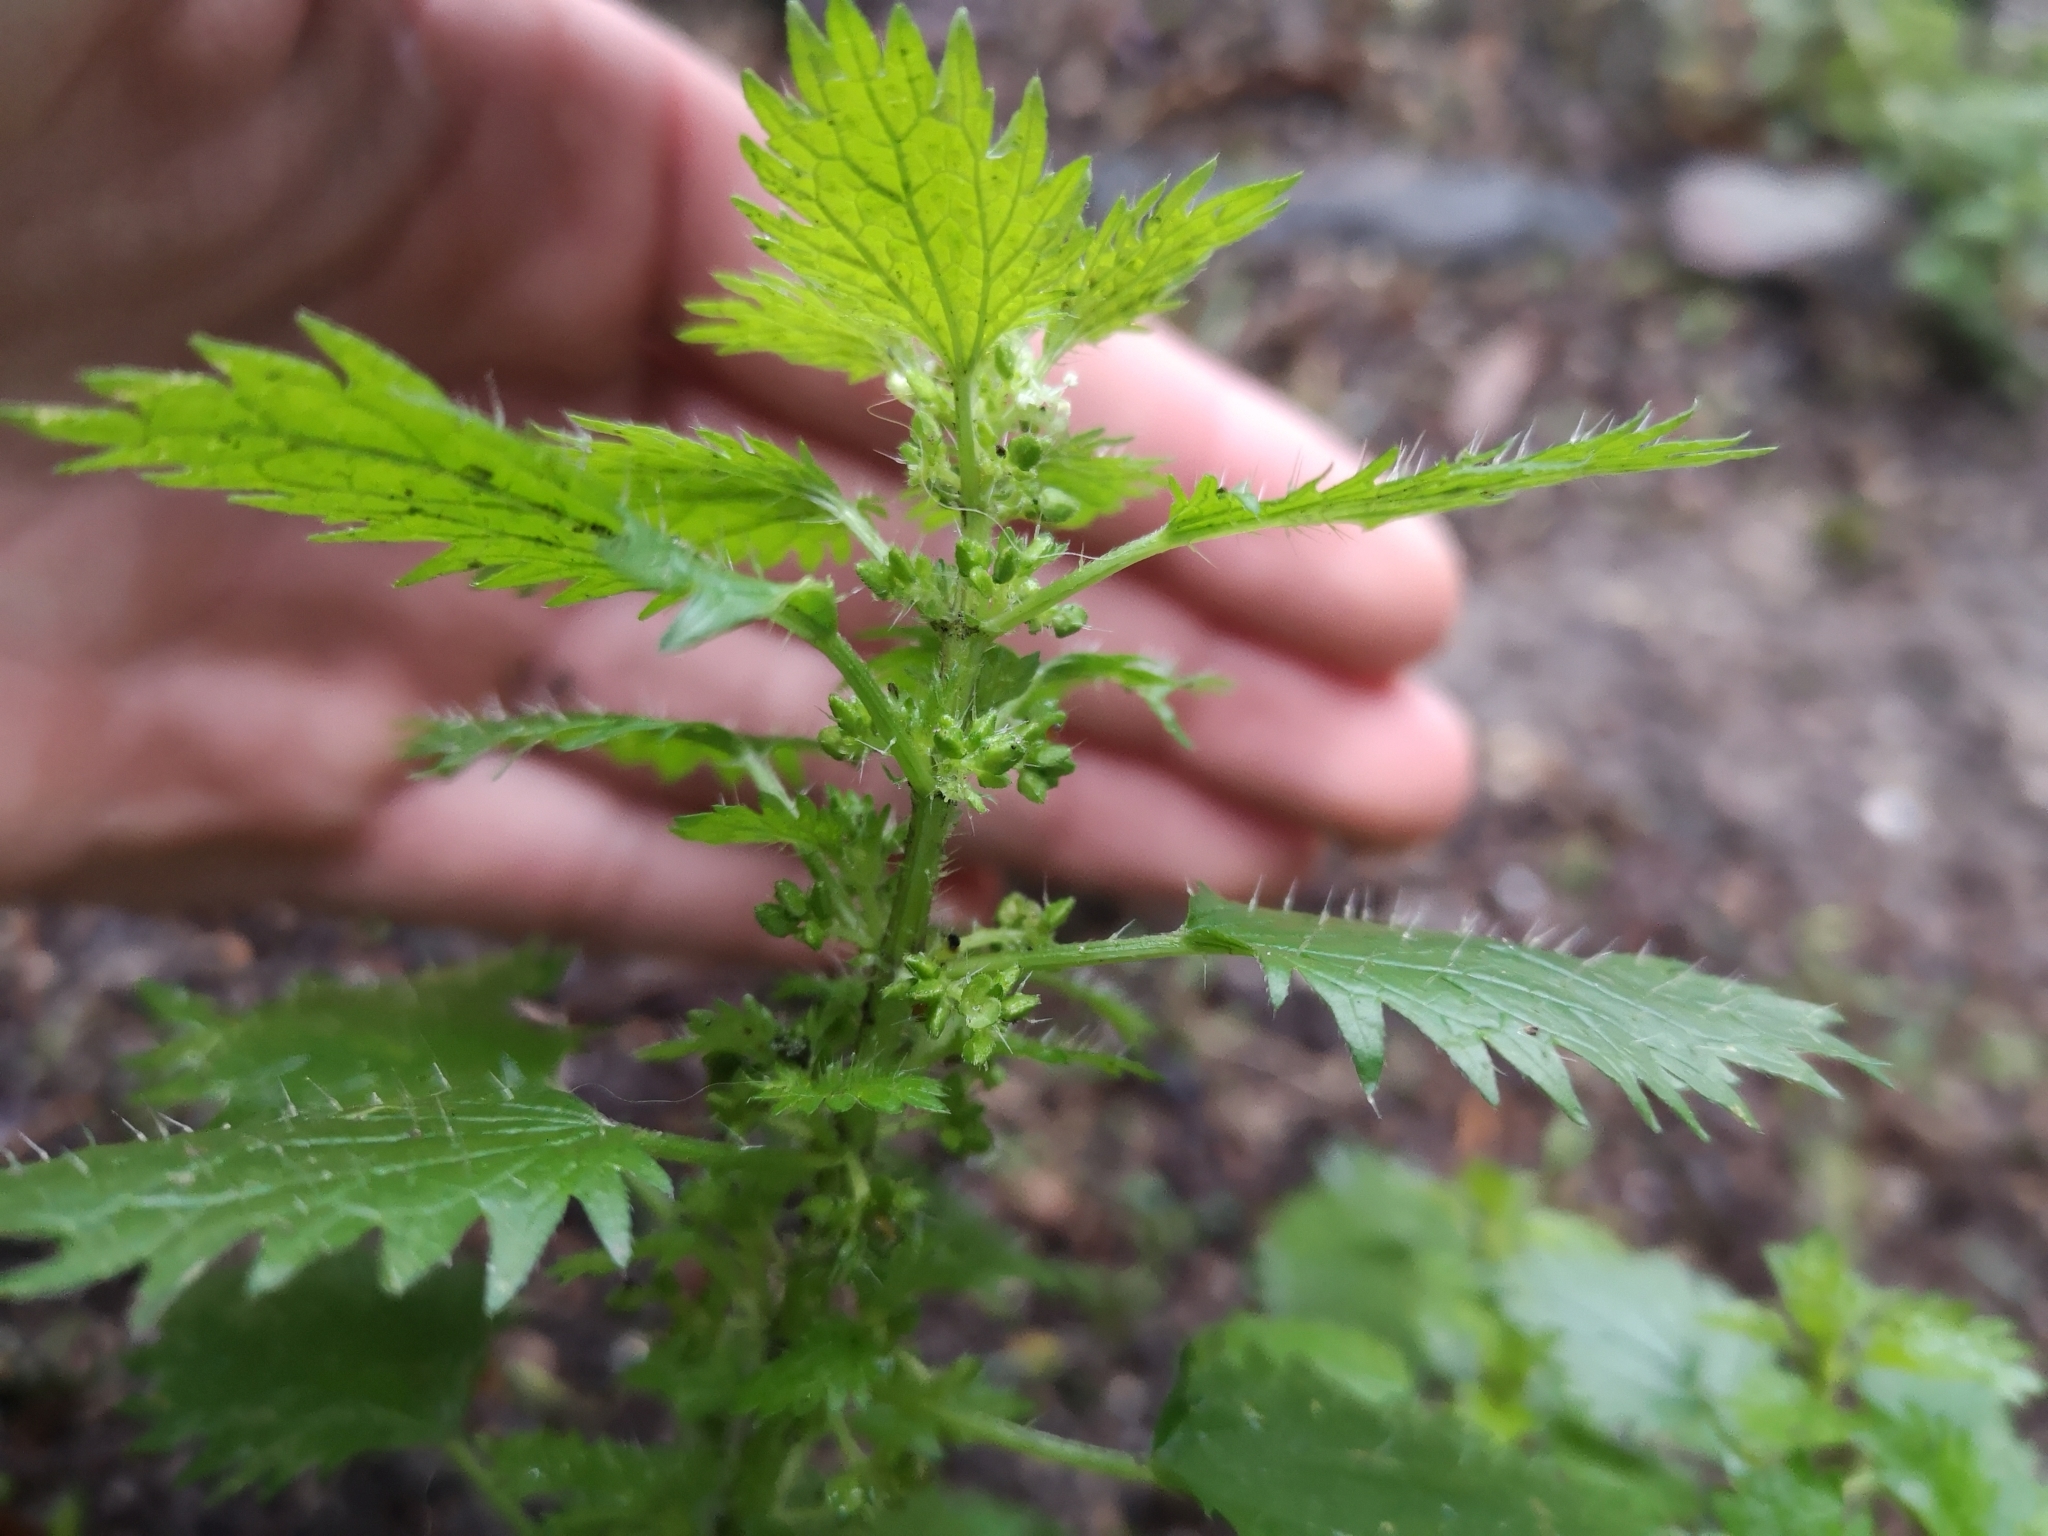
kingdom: Plantae
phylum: Tracheophyta
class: Magnoliopsida
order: Rosales
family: Urticaceae
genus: Urtica
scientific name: Urtica urens
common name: Dwarf nettle
